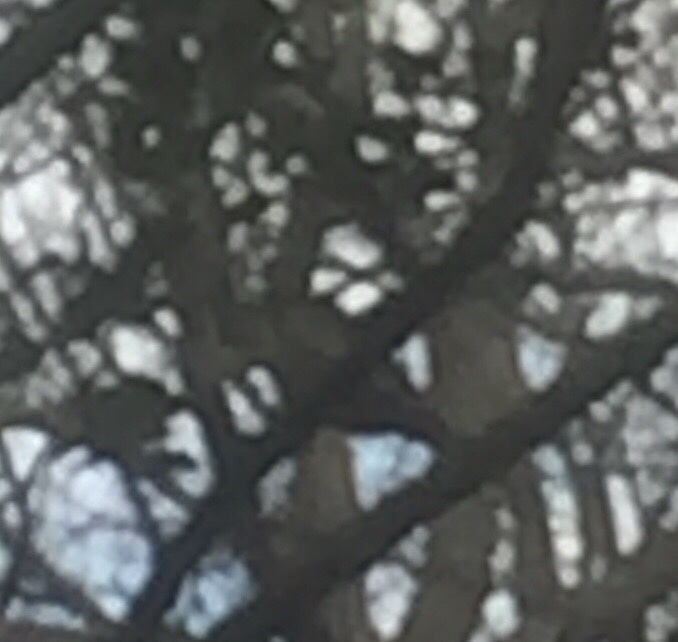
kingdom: Animalia
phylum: Chordata
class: Aves
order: Passeriformes
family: Sittidae
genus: Sitta
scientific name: Sitta europaea
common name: Eurasian nuthatch
